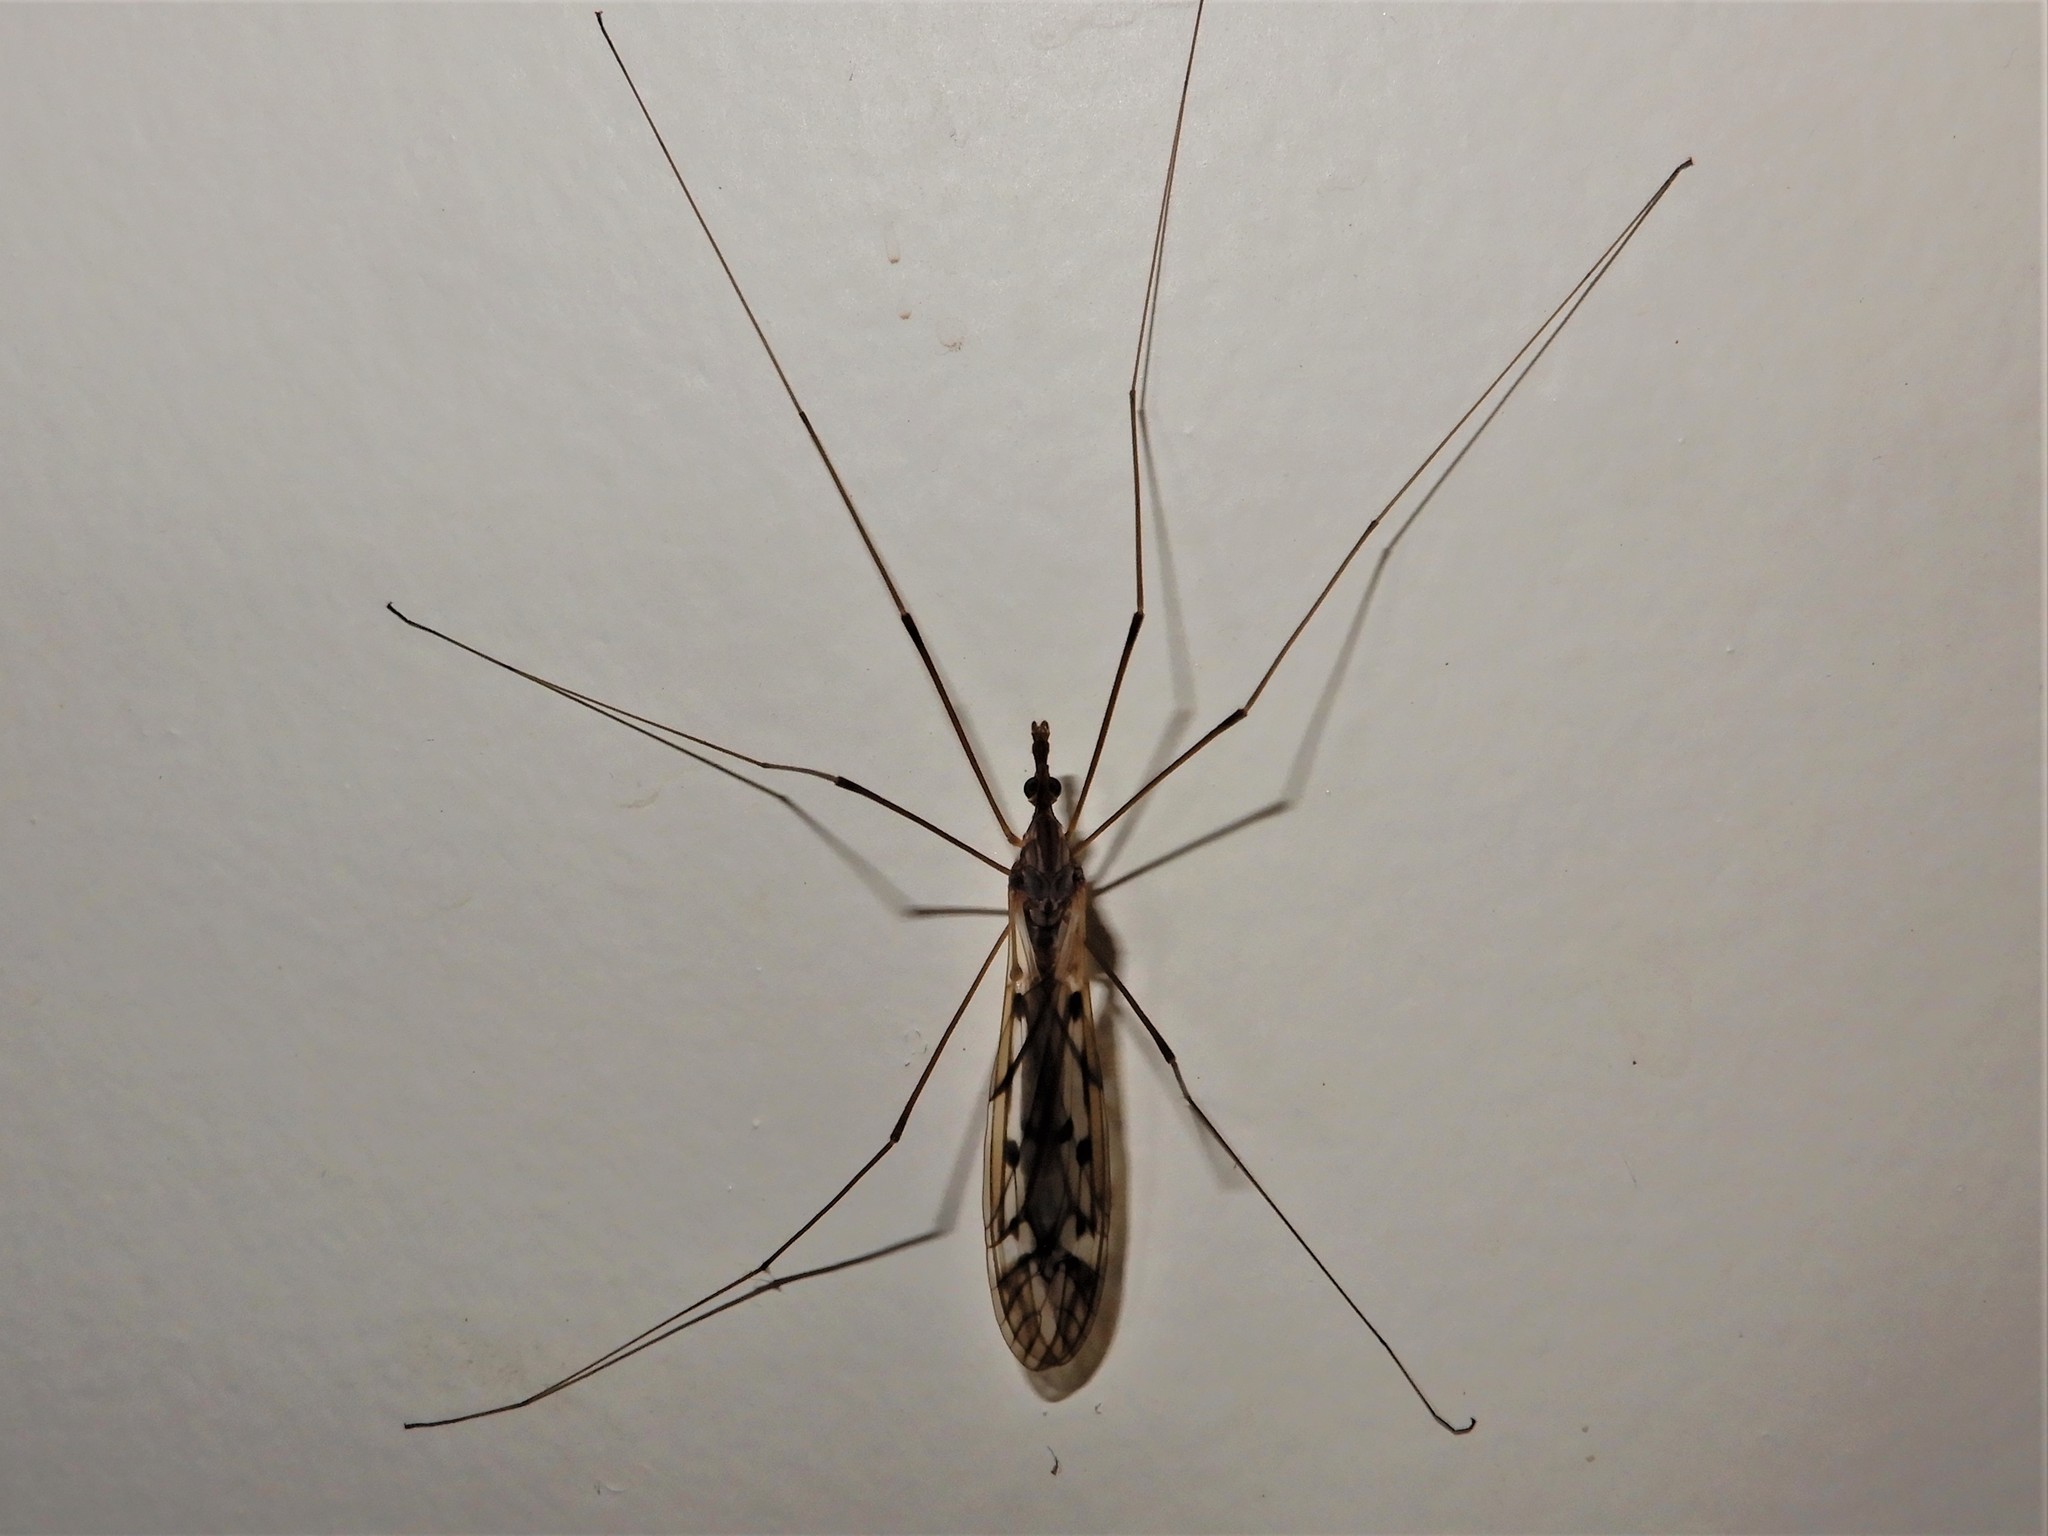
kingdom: Animalia
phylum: Arthropoda
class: Insecta
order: Diptera
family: Tipulidae
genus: Zelandotipula
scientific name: Zelandotipula novarae
